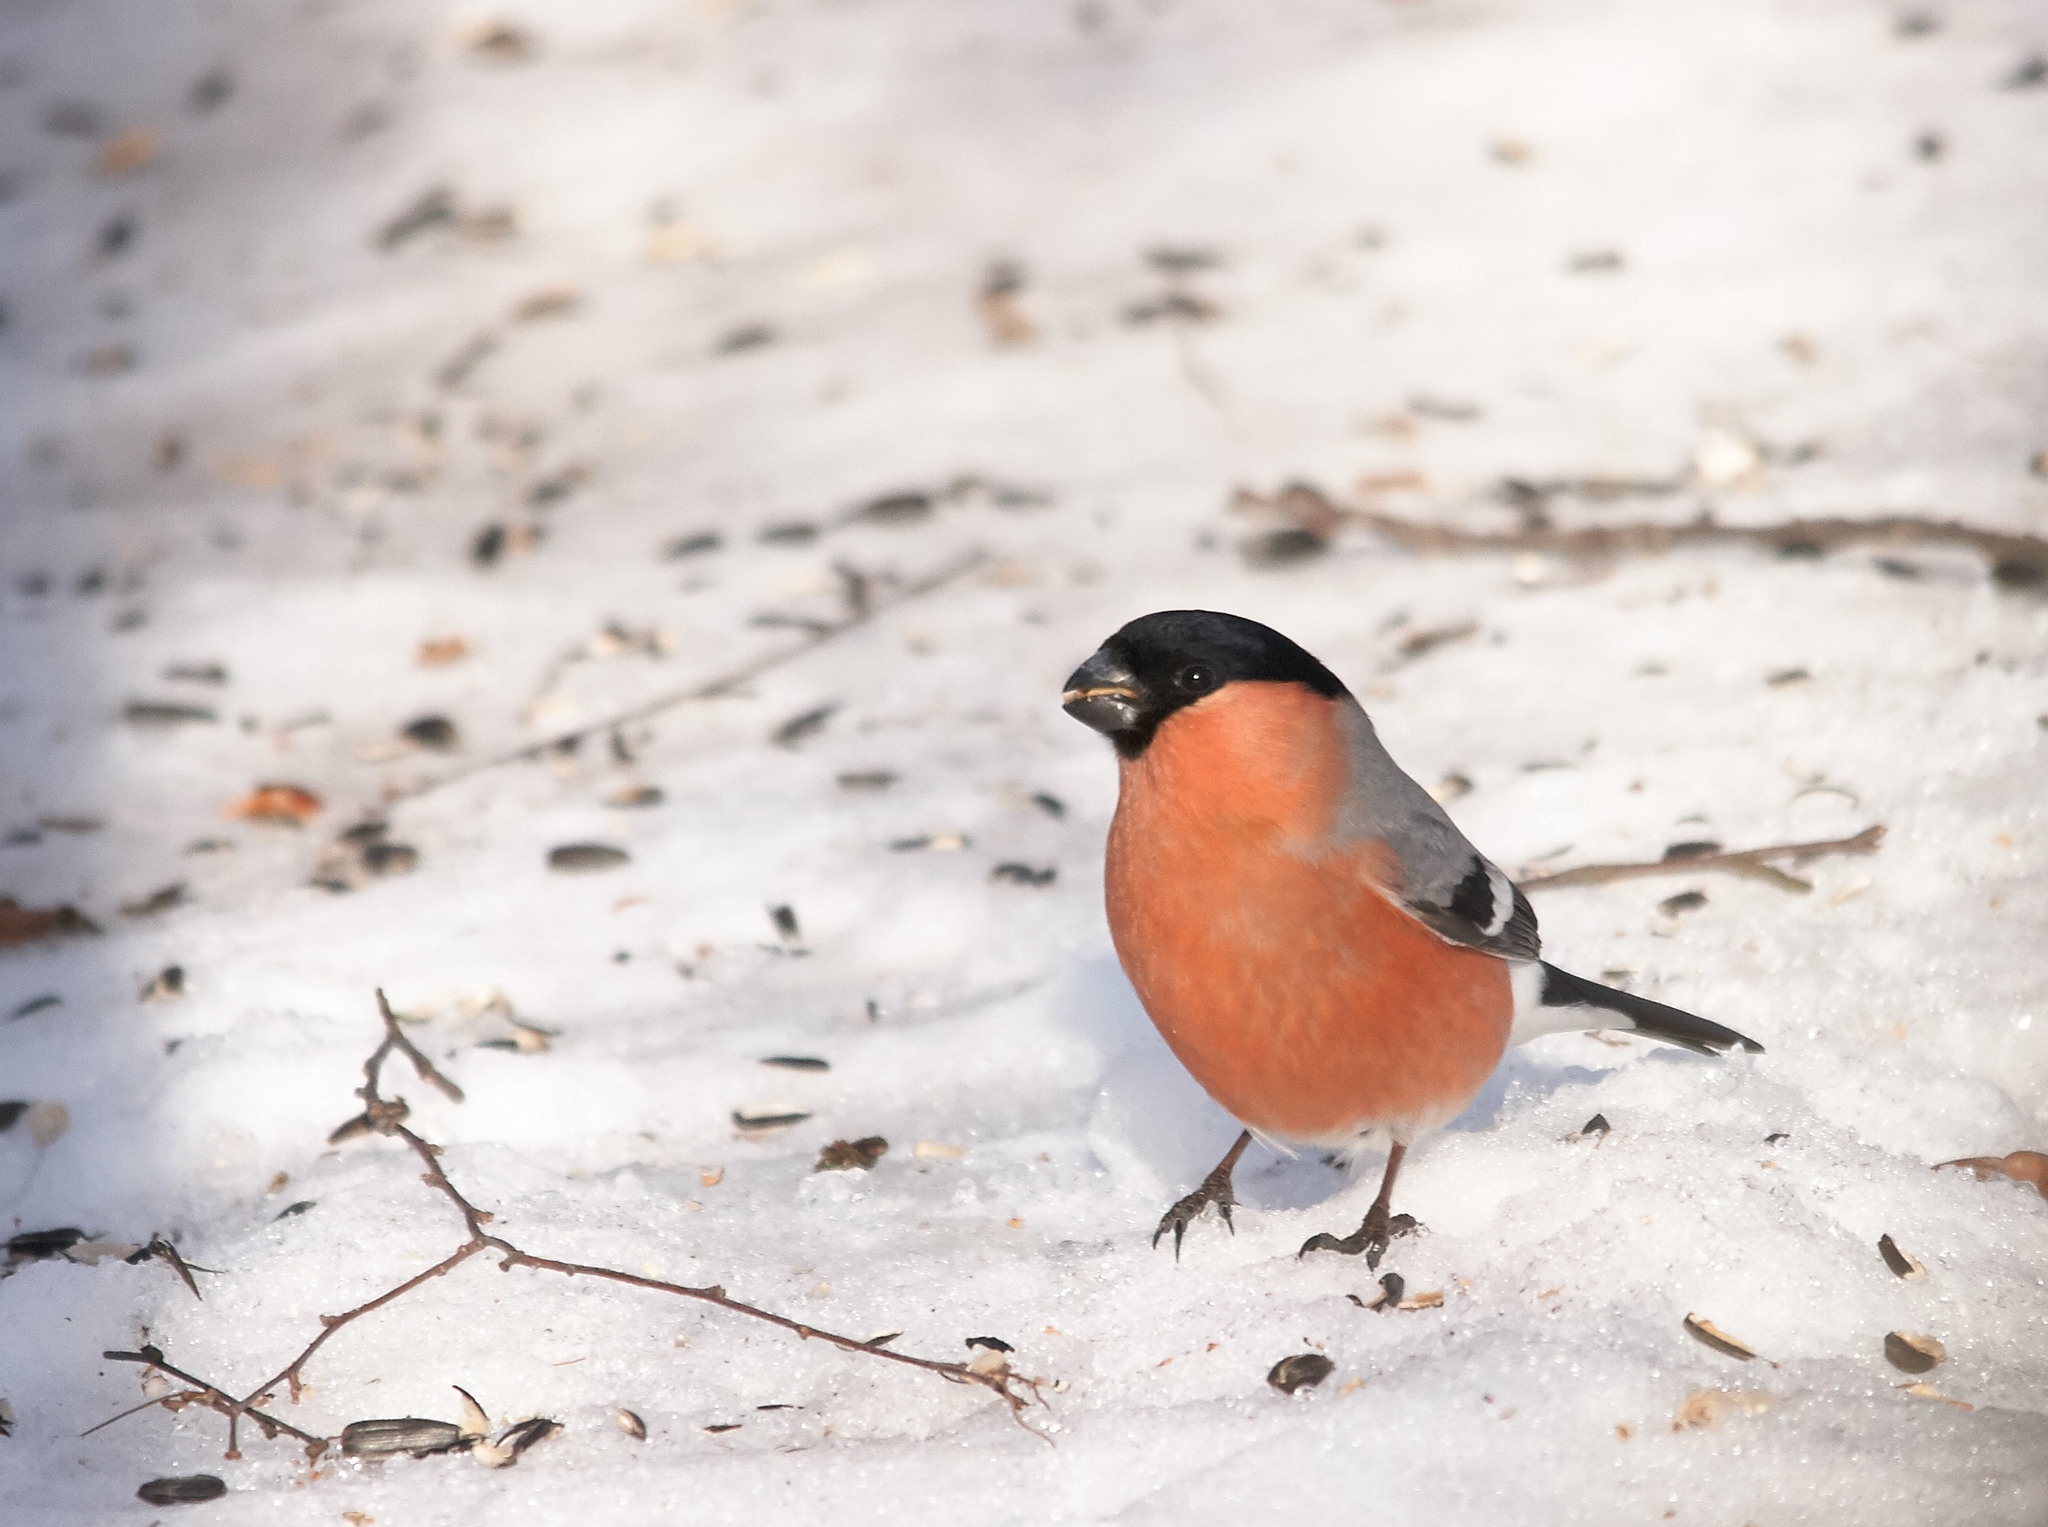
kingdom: Animalia
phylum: Chordata
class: Aves
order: Passeriformes
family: Fringillidae
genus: Pyrrhula
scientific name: Pyrrhula pyrrhula
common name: Eurasian bullfinch
